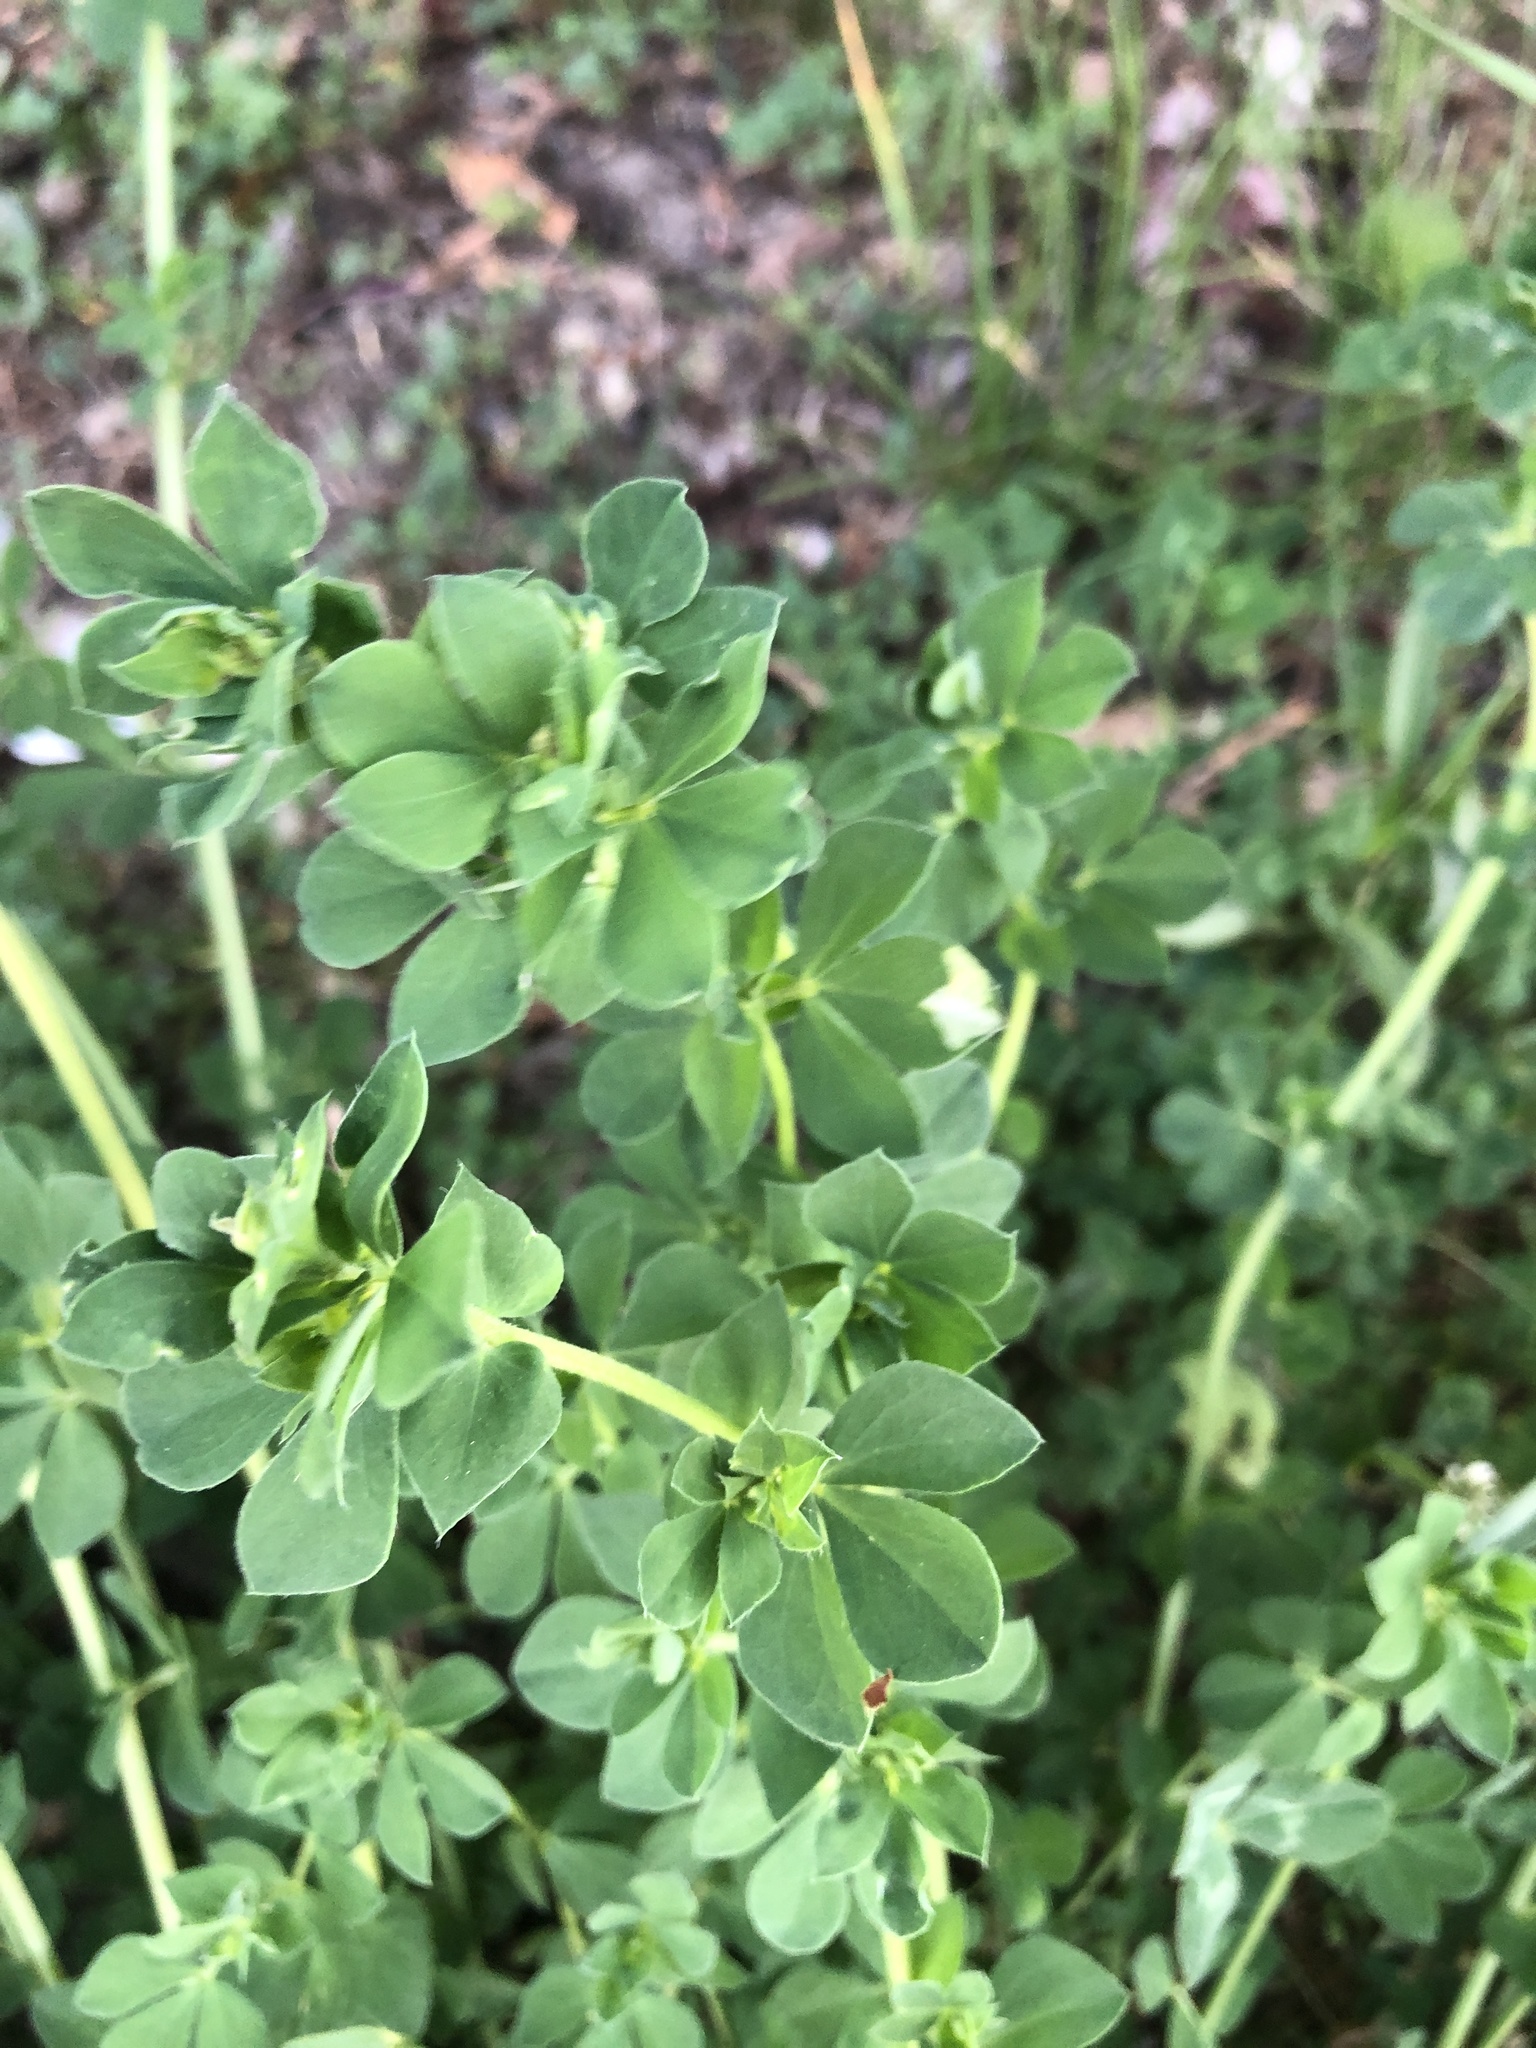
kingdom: Plantae
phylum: Tracheophyta
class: Magnoliopsida
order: Fabales
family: Fabaceae
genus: Lotus
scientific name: Lotus corniculatus
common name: Common bird's-foot-trefoil
